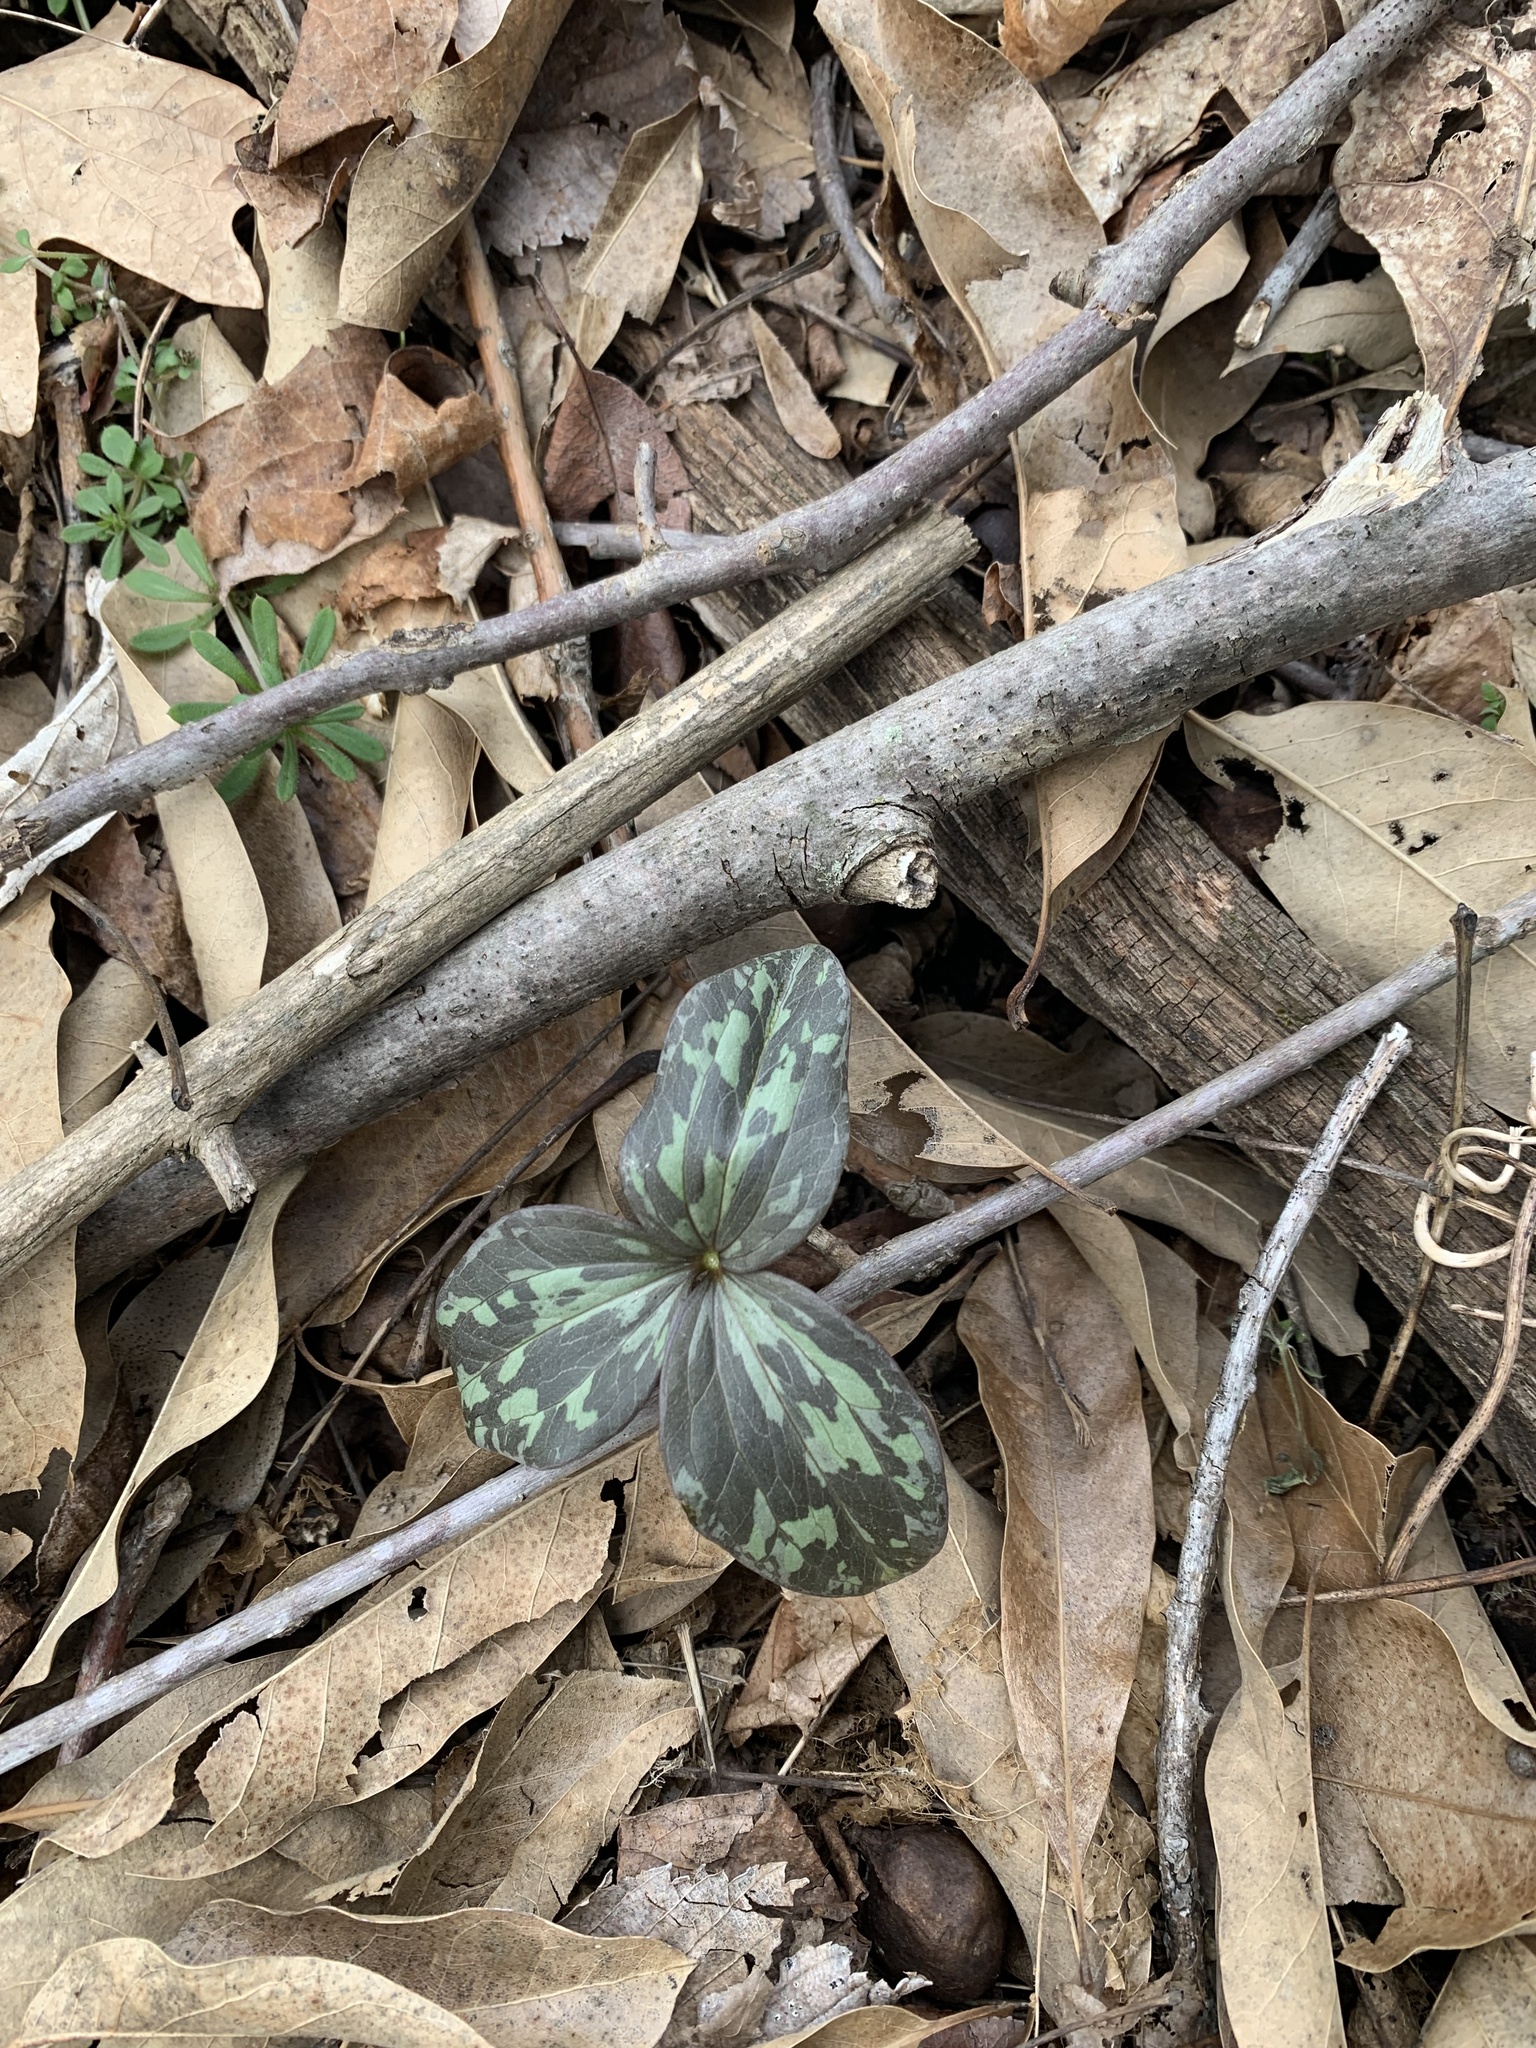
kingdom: Plantae
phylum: Tracheophyta
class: Liliopsida
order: Liliales
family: Melanthiaceae
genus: Trillium
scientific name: Trillium recurvatum
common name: Bloody butcher
